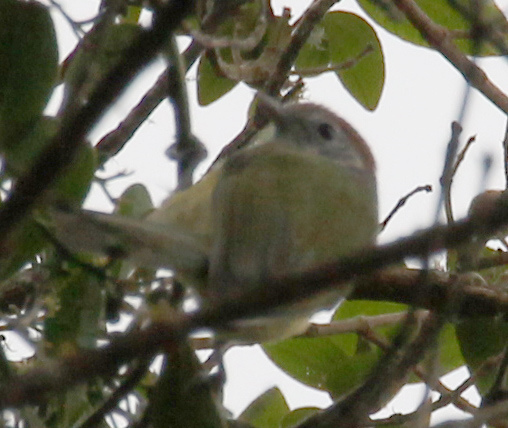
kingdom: Animalia
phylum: Chordata
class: Aves
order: Passeriformes
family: Vireonidae
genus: Hylophilus
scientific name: Hylophilus poicilotis
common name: Rufous-crowned greenlet
